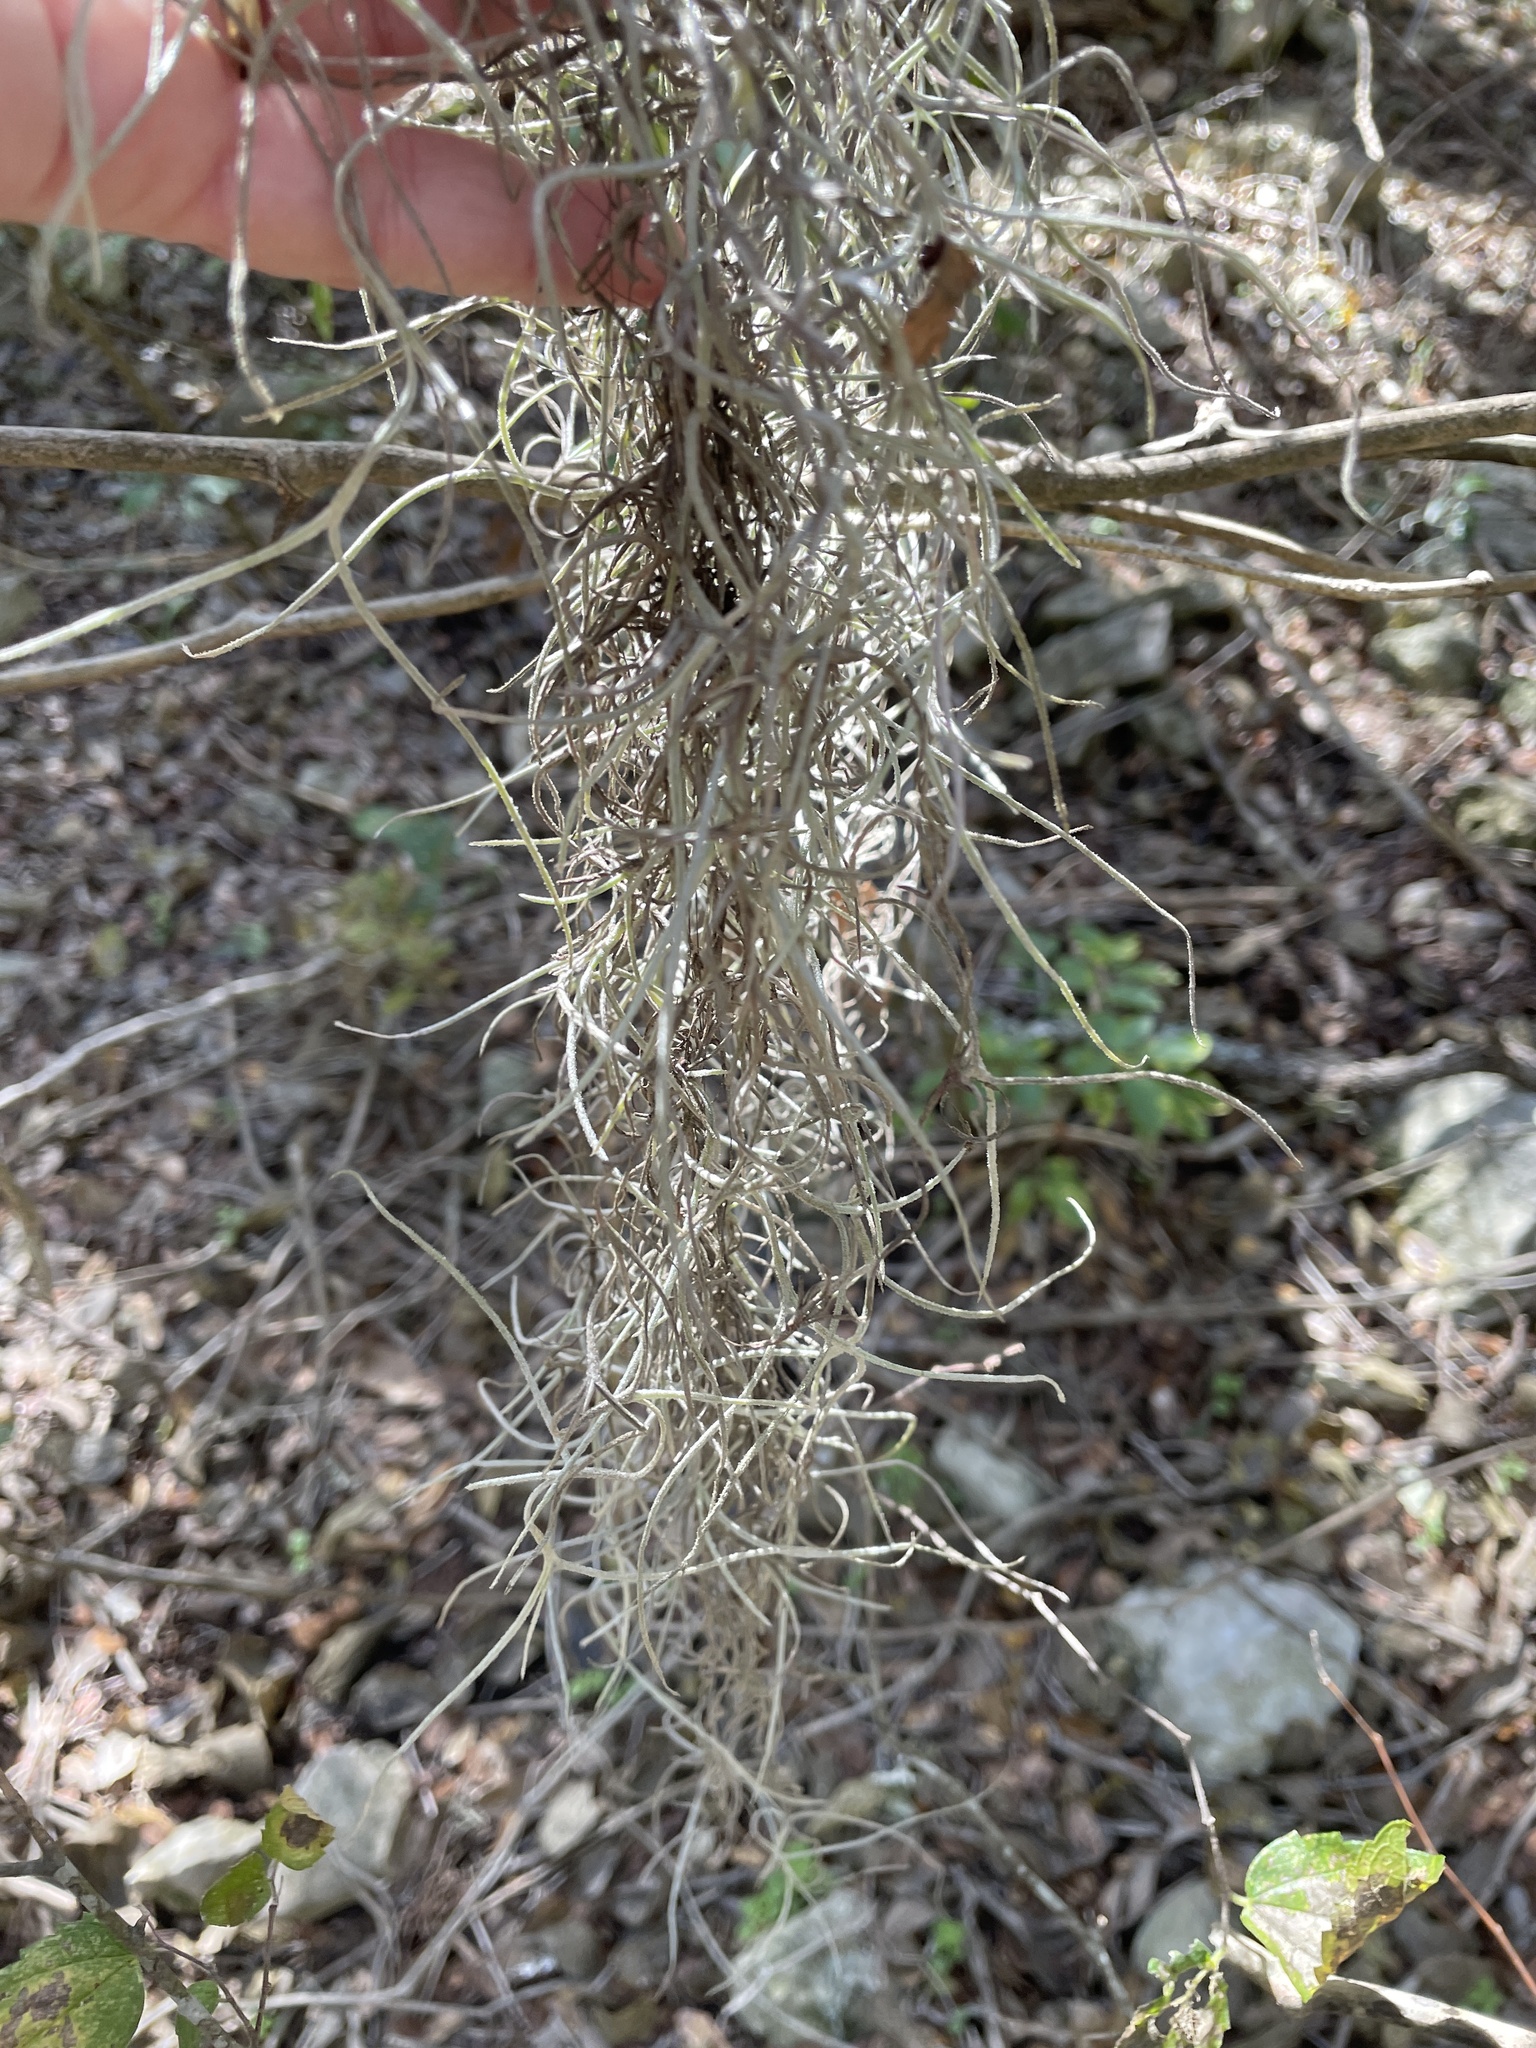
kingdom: Plantae
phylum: Tracheophyta
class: Liliopsida
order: Poales
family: Bromeliaceae
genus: Tillandsia
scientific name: Tillandsia usneoides
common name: Spanish moss
